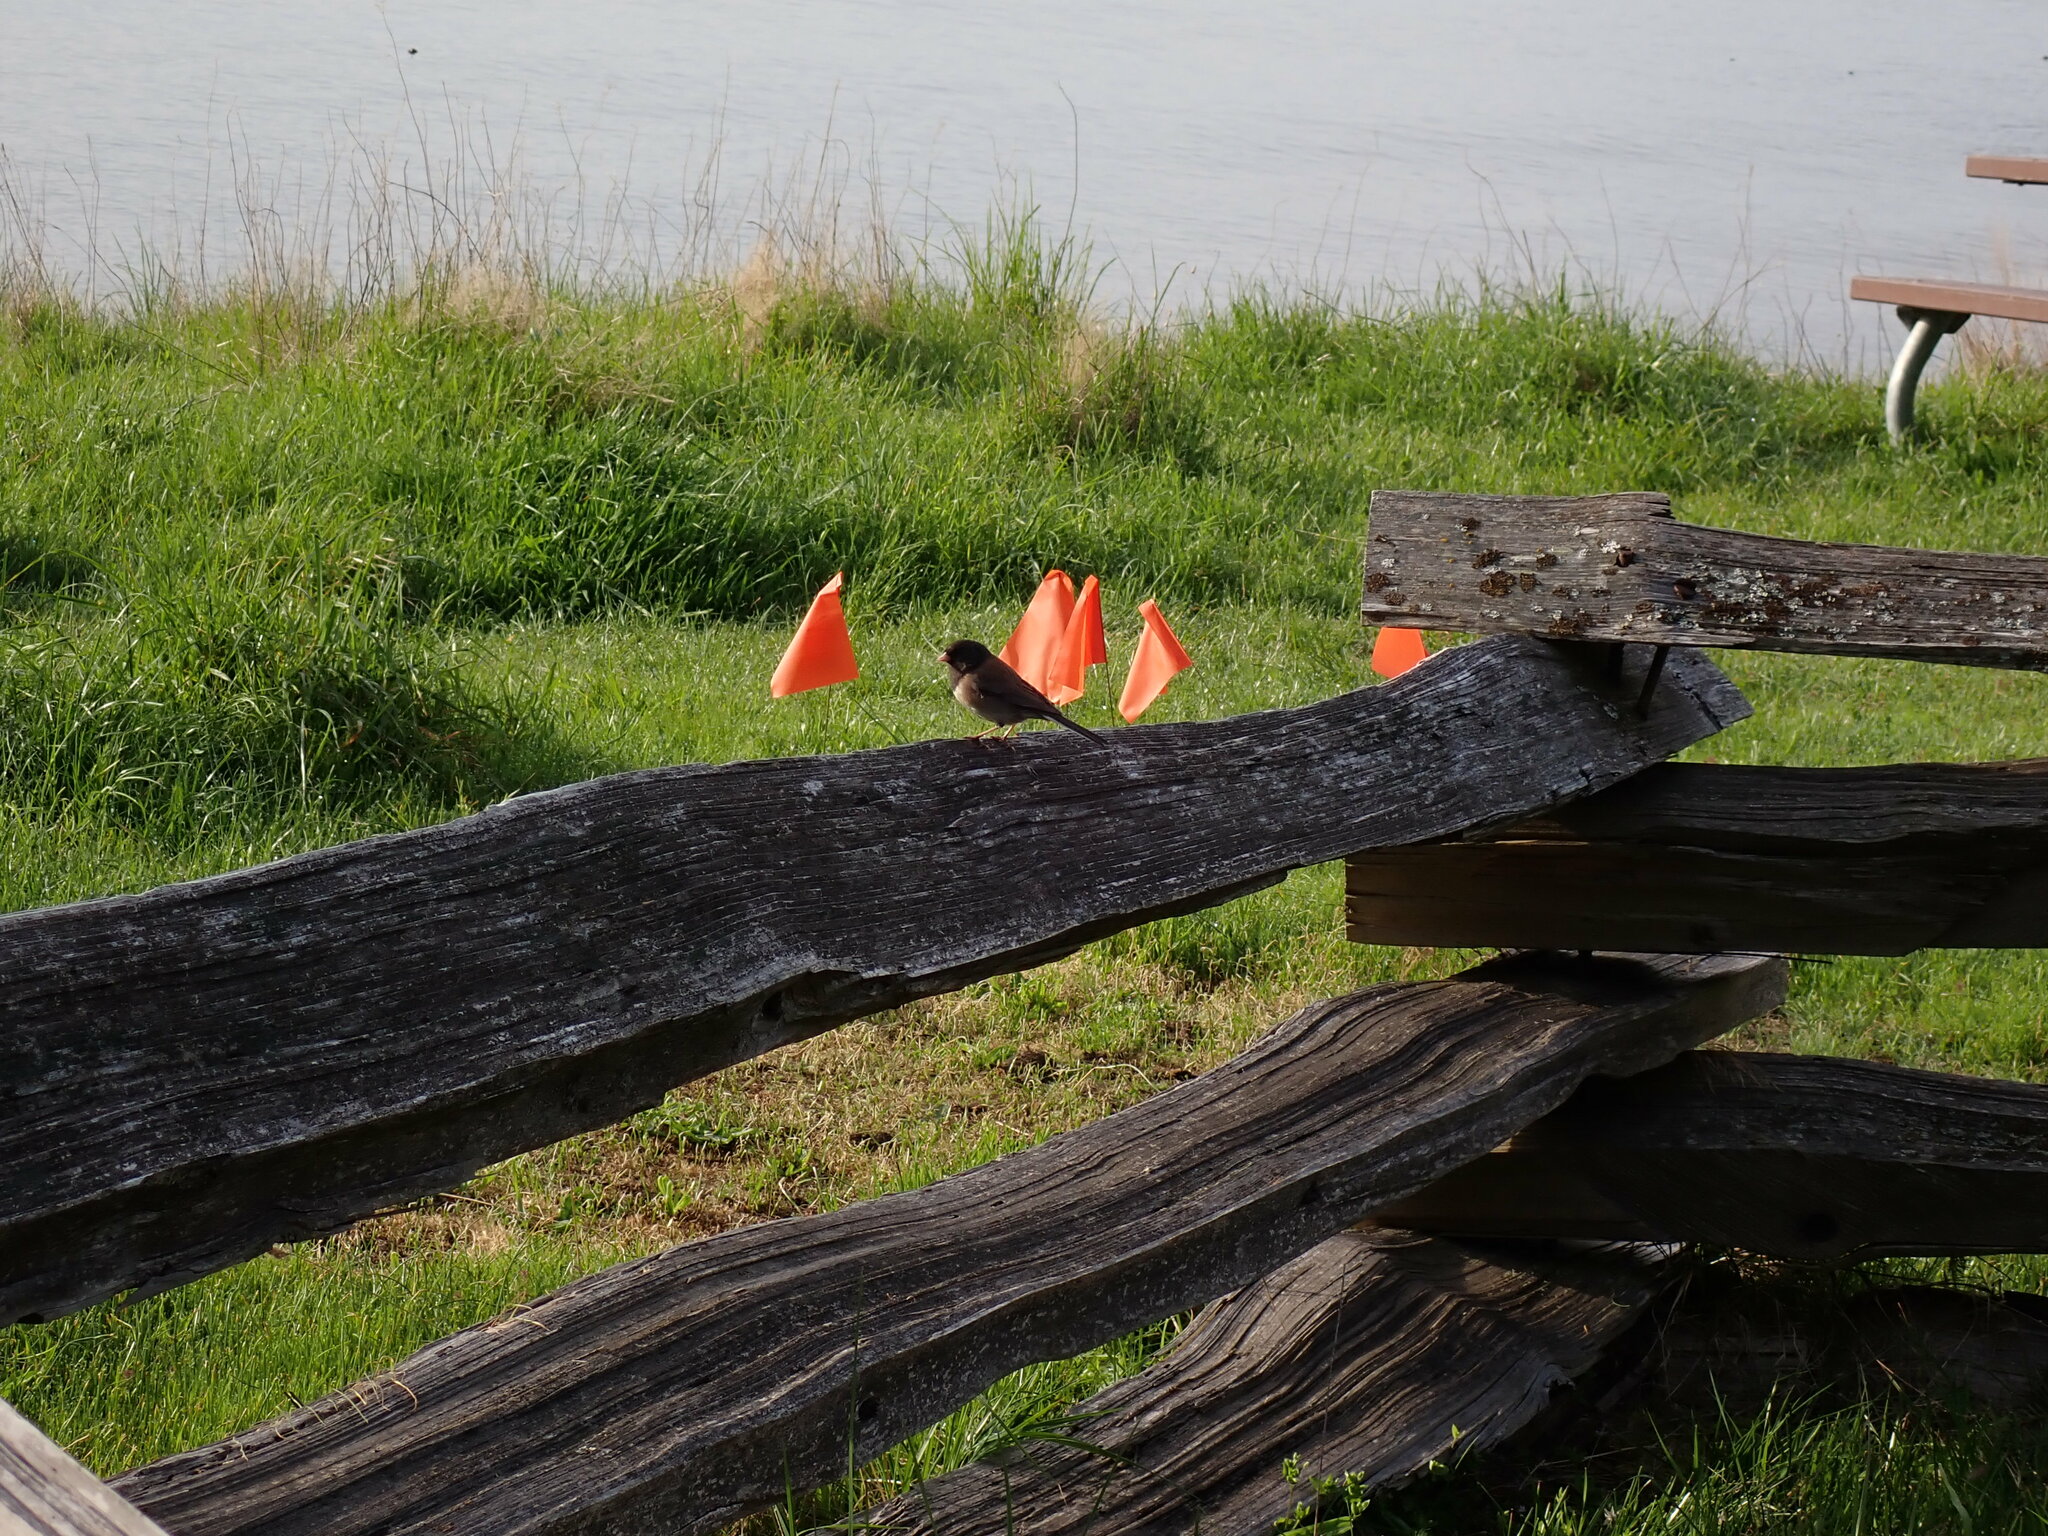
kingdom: Animalia
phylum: Chordata
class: Aves
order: Passeriformes
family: Passerellidae
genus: Junco
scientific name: Junco hyemalis
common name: Dark-eyed junco
